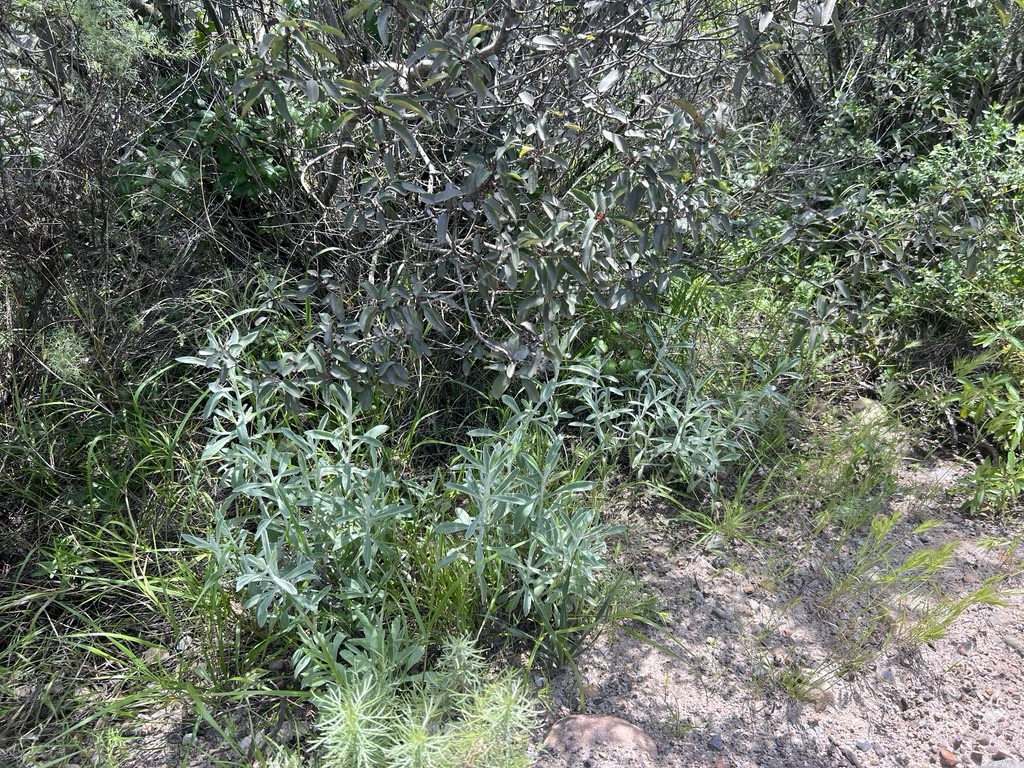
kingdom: Plantae
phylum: Tracheophyta
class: Magnoliopsida
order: Asterales
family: Asteraceae
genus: Pseudognaphalium
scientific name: Pseudognaphalium microcephalum
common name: San diego rabbit-tobacco
